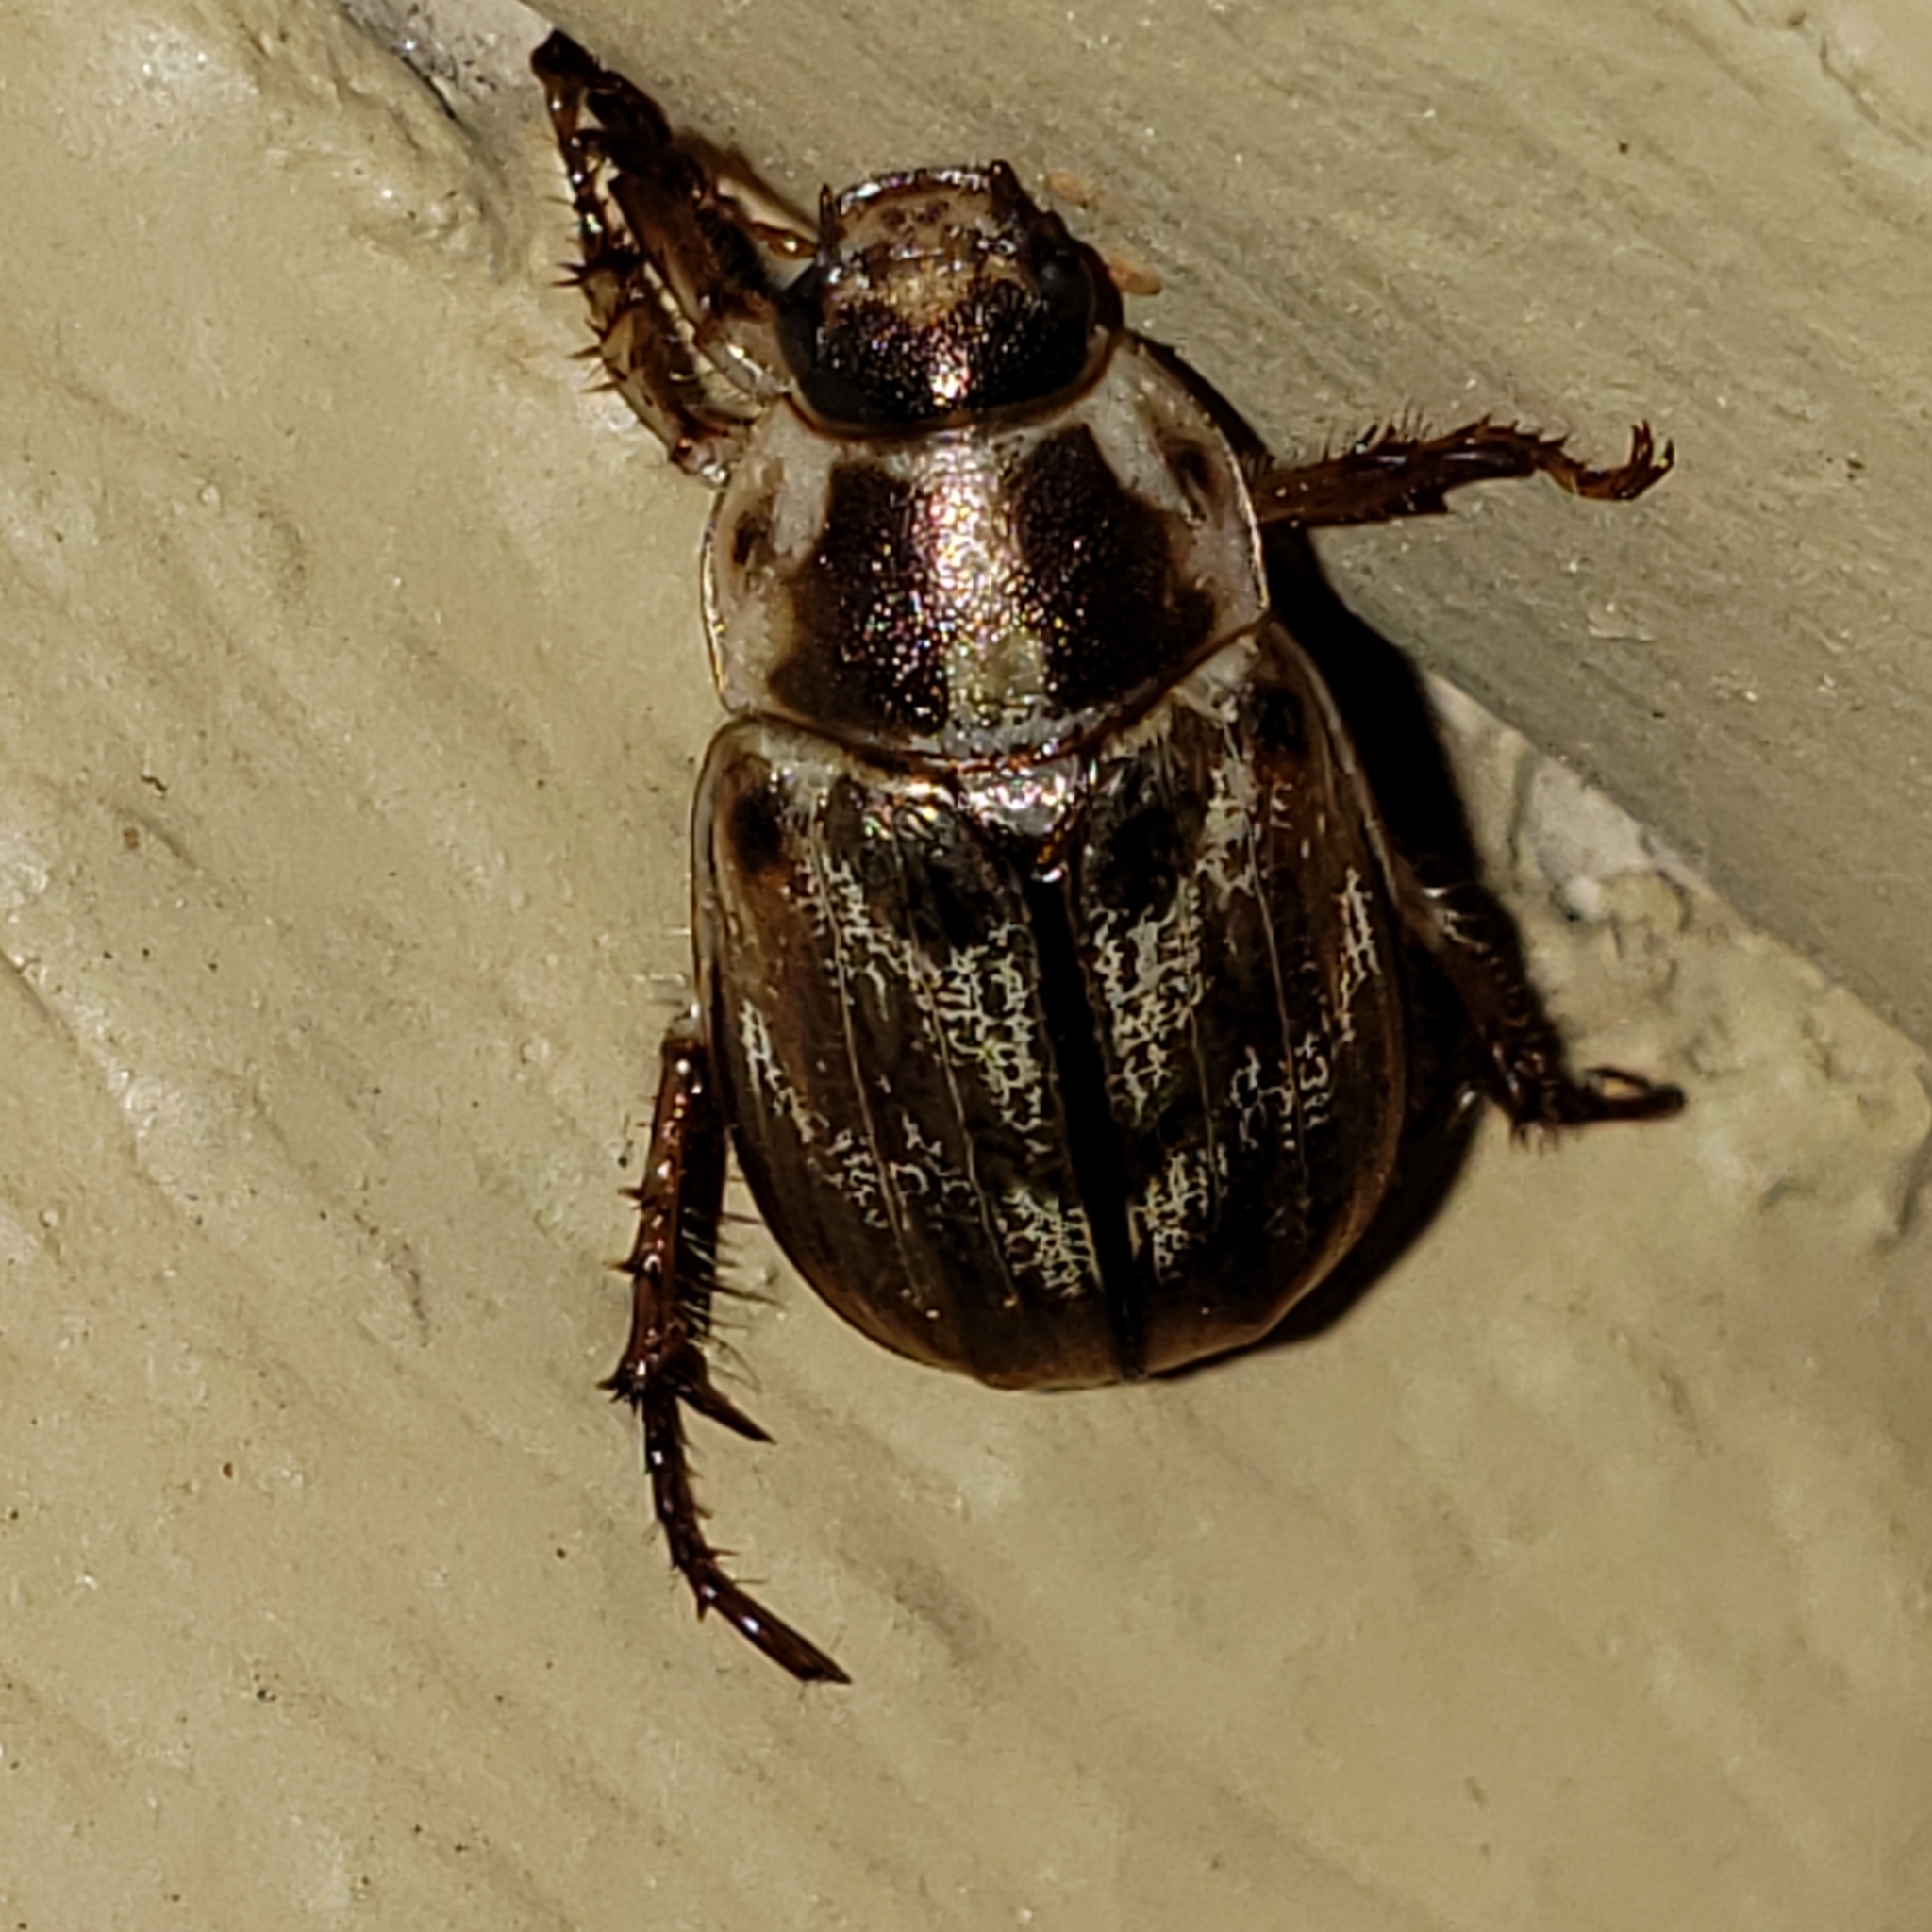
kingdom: Animalia
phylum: Arthropoda
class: Insecta
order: Coleoptera
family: Scarabaeidae
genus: Exomala
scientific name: Exomala orientalis
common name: Oriental beetle
